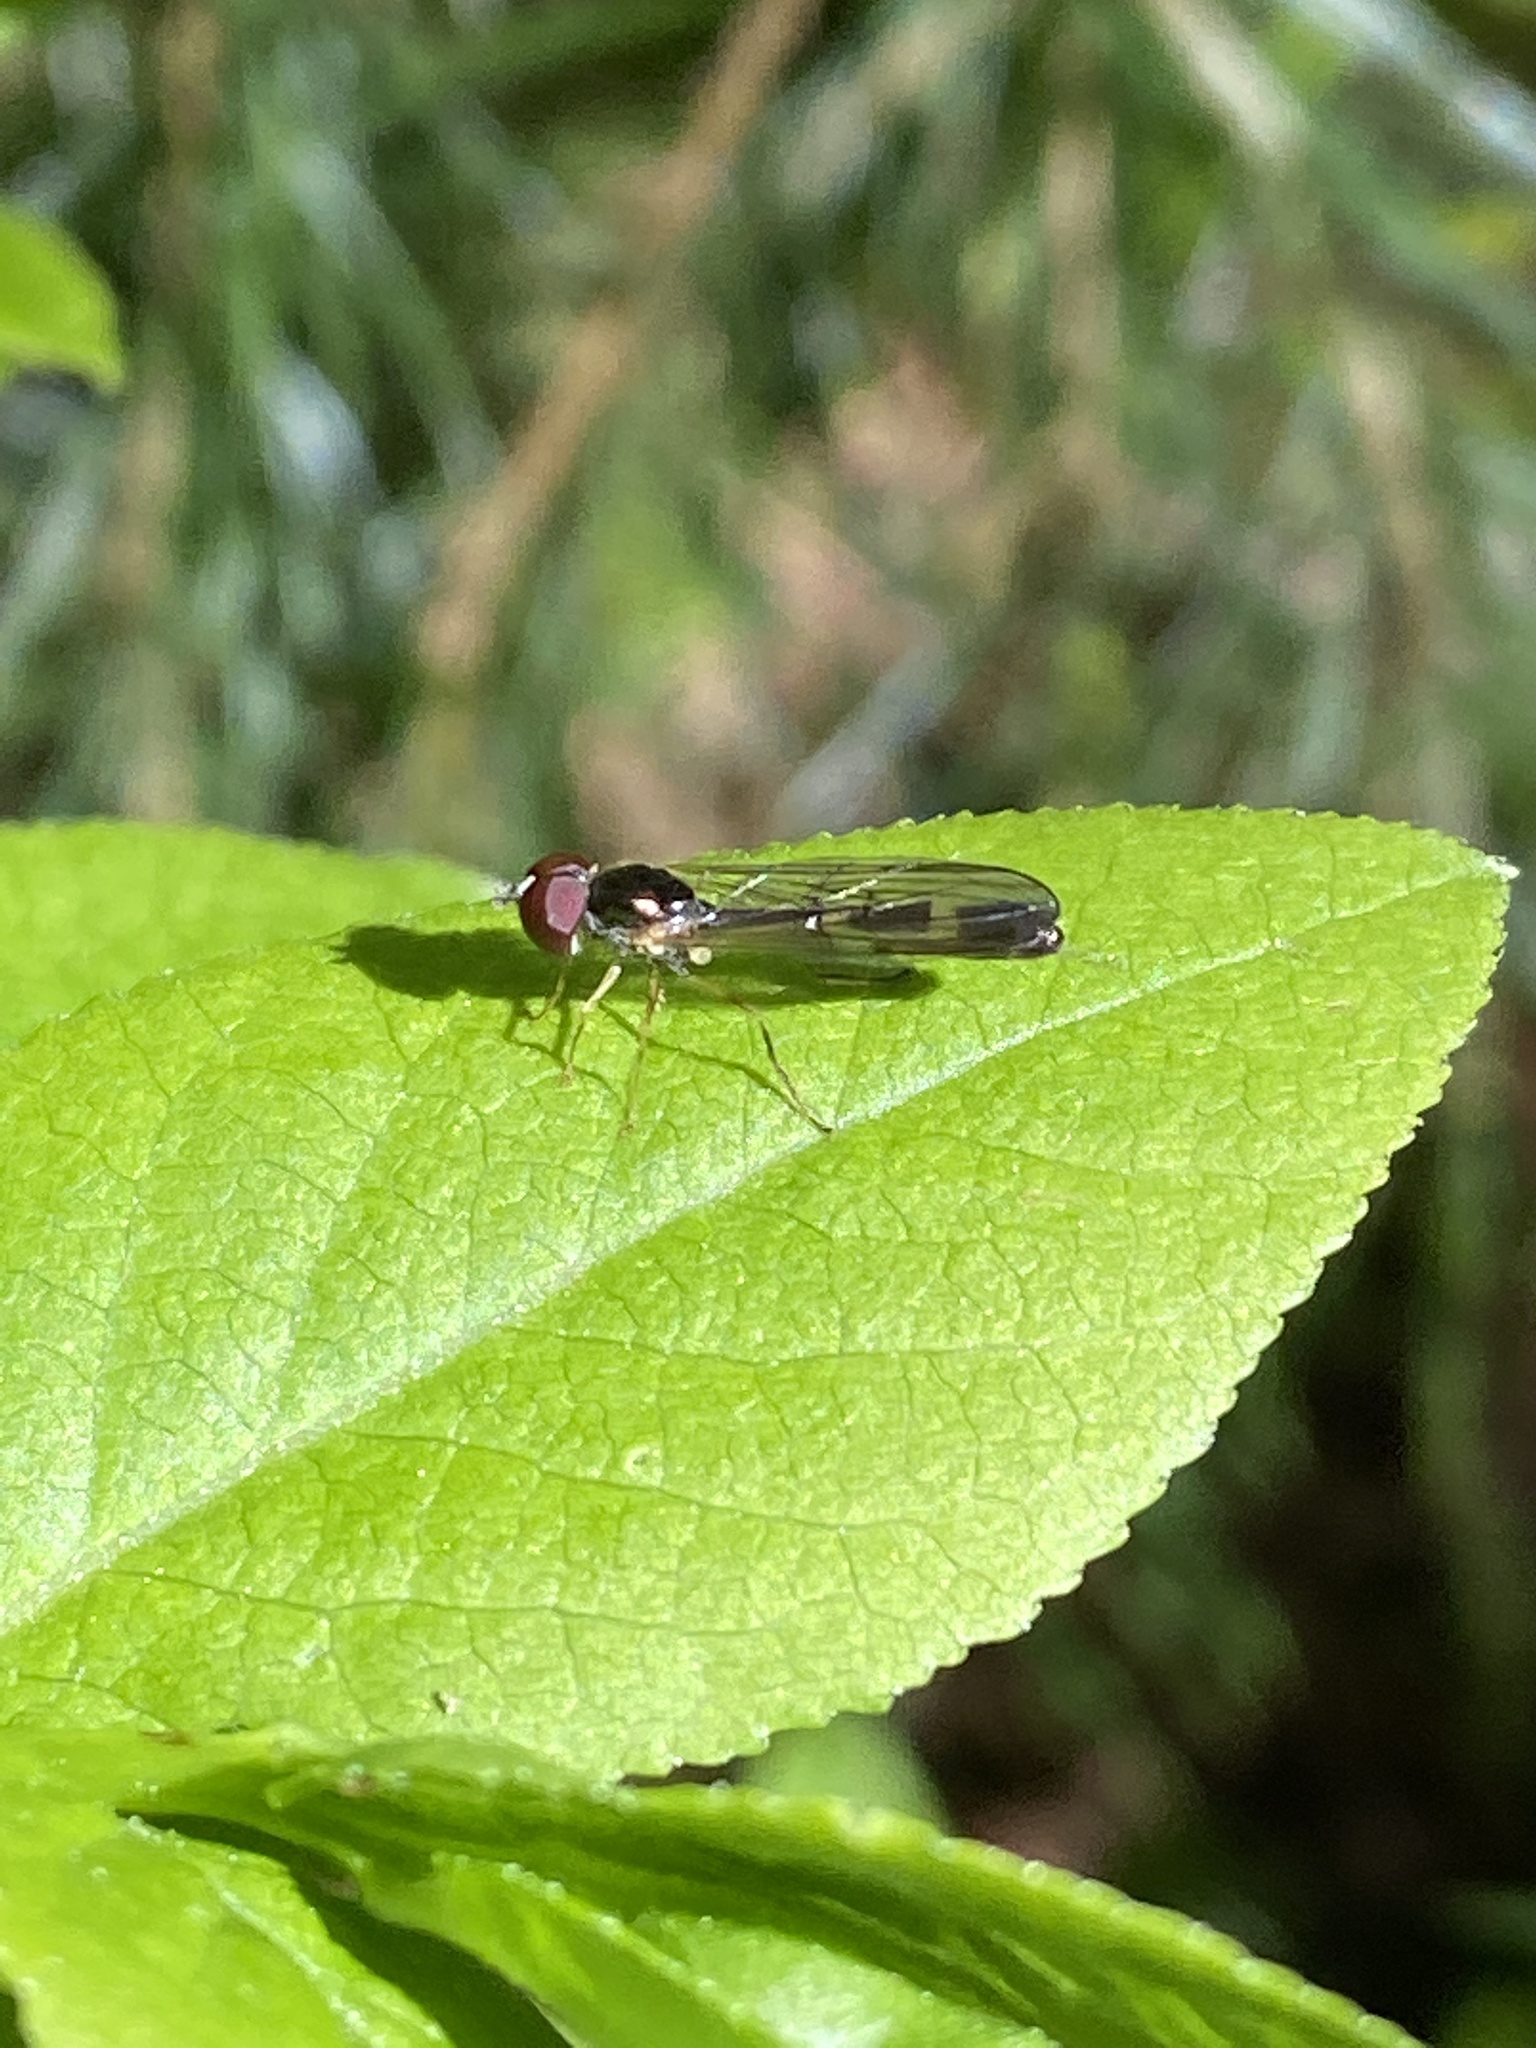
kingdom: Animalia
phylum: Arthropoda
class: Insecta
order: Diptera
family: Syrphidae
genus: Baccha
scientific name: Baccha elongata
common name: Common dainty
